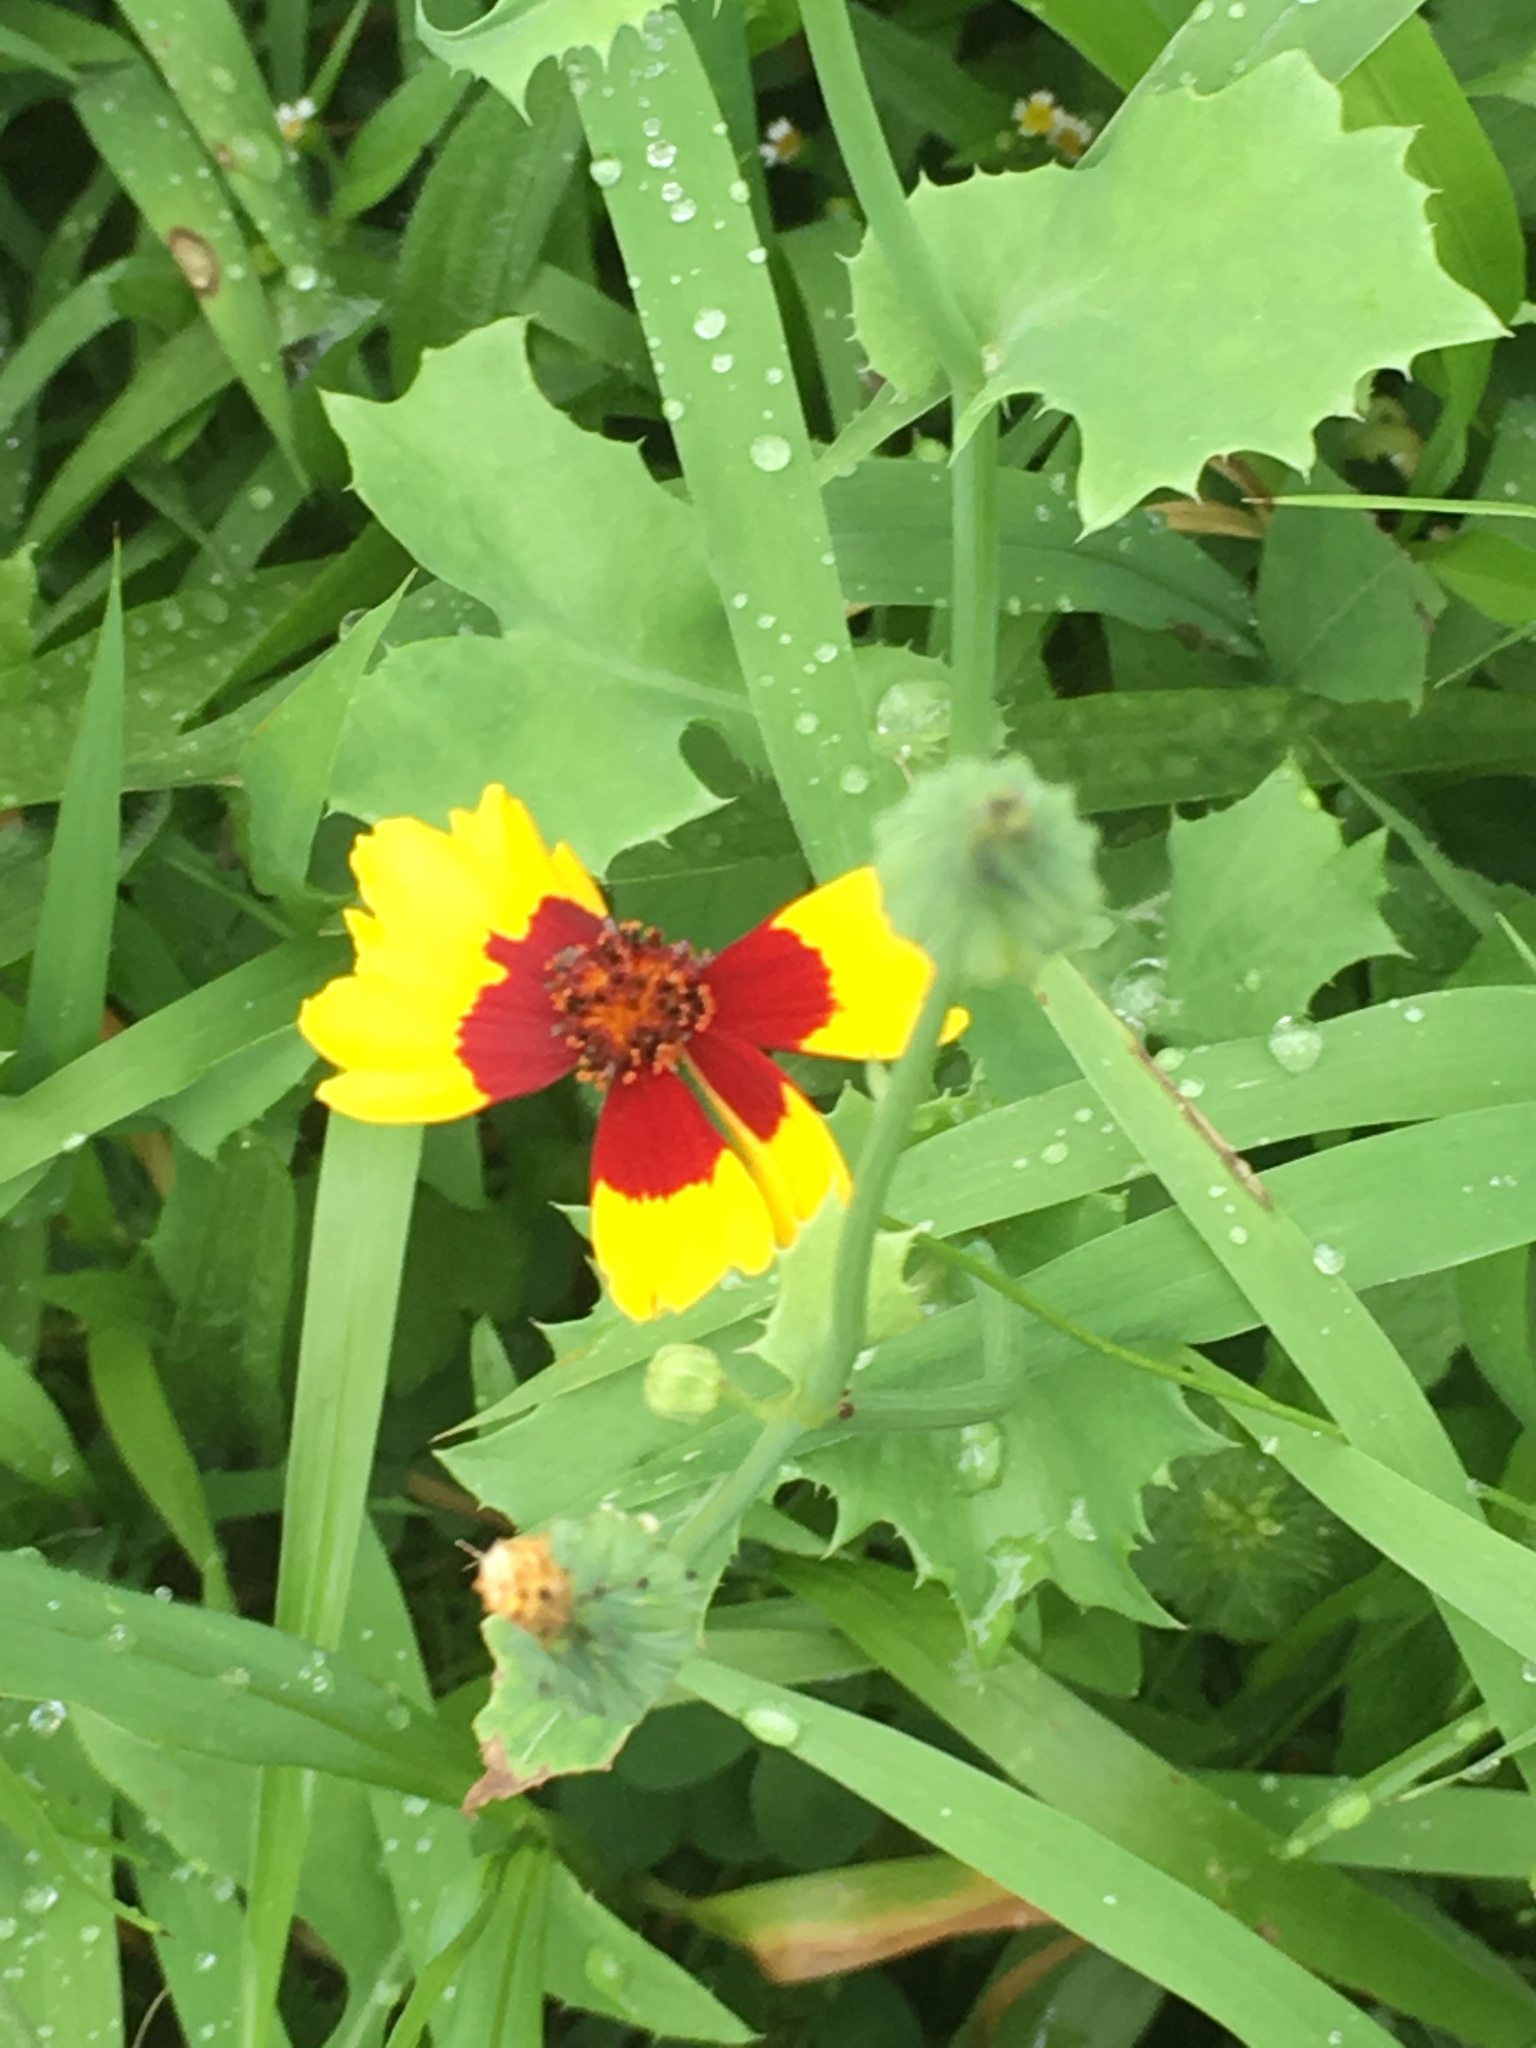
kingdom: Plantae
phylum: Tracheophyta
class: Magnoliopsida
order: Asterales
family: Asteraceae
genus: Coreopsis
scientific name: Coreopsis tinctoria
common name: Garden tickseed
